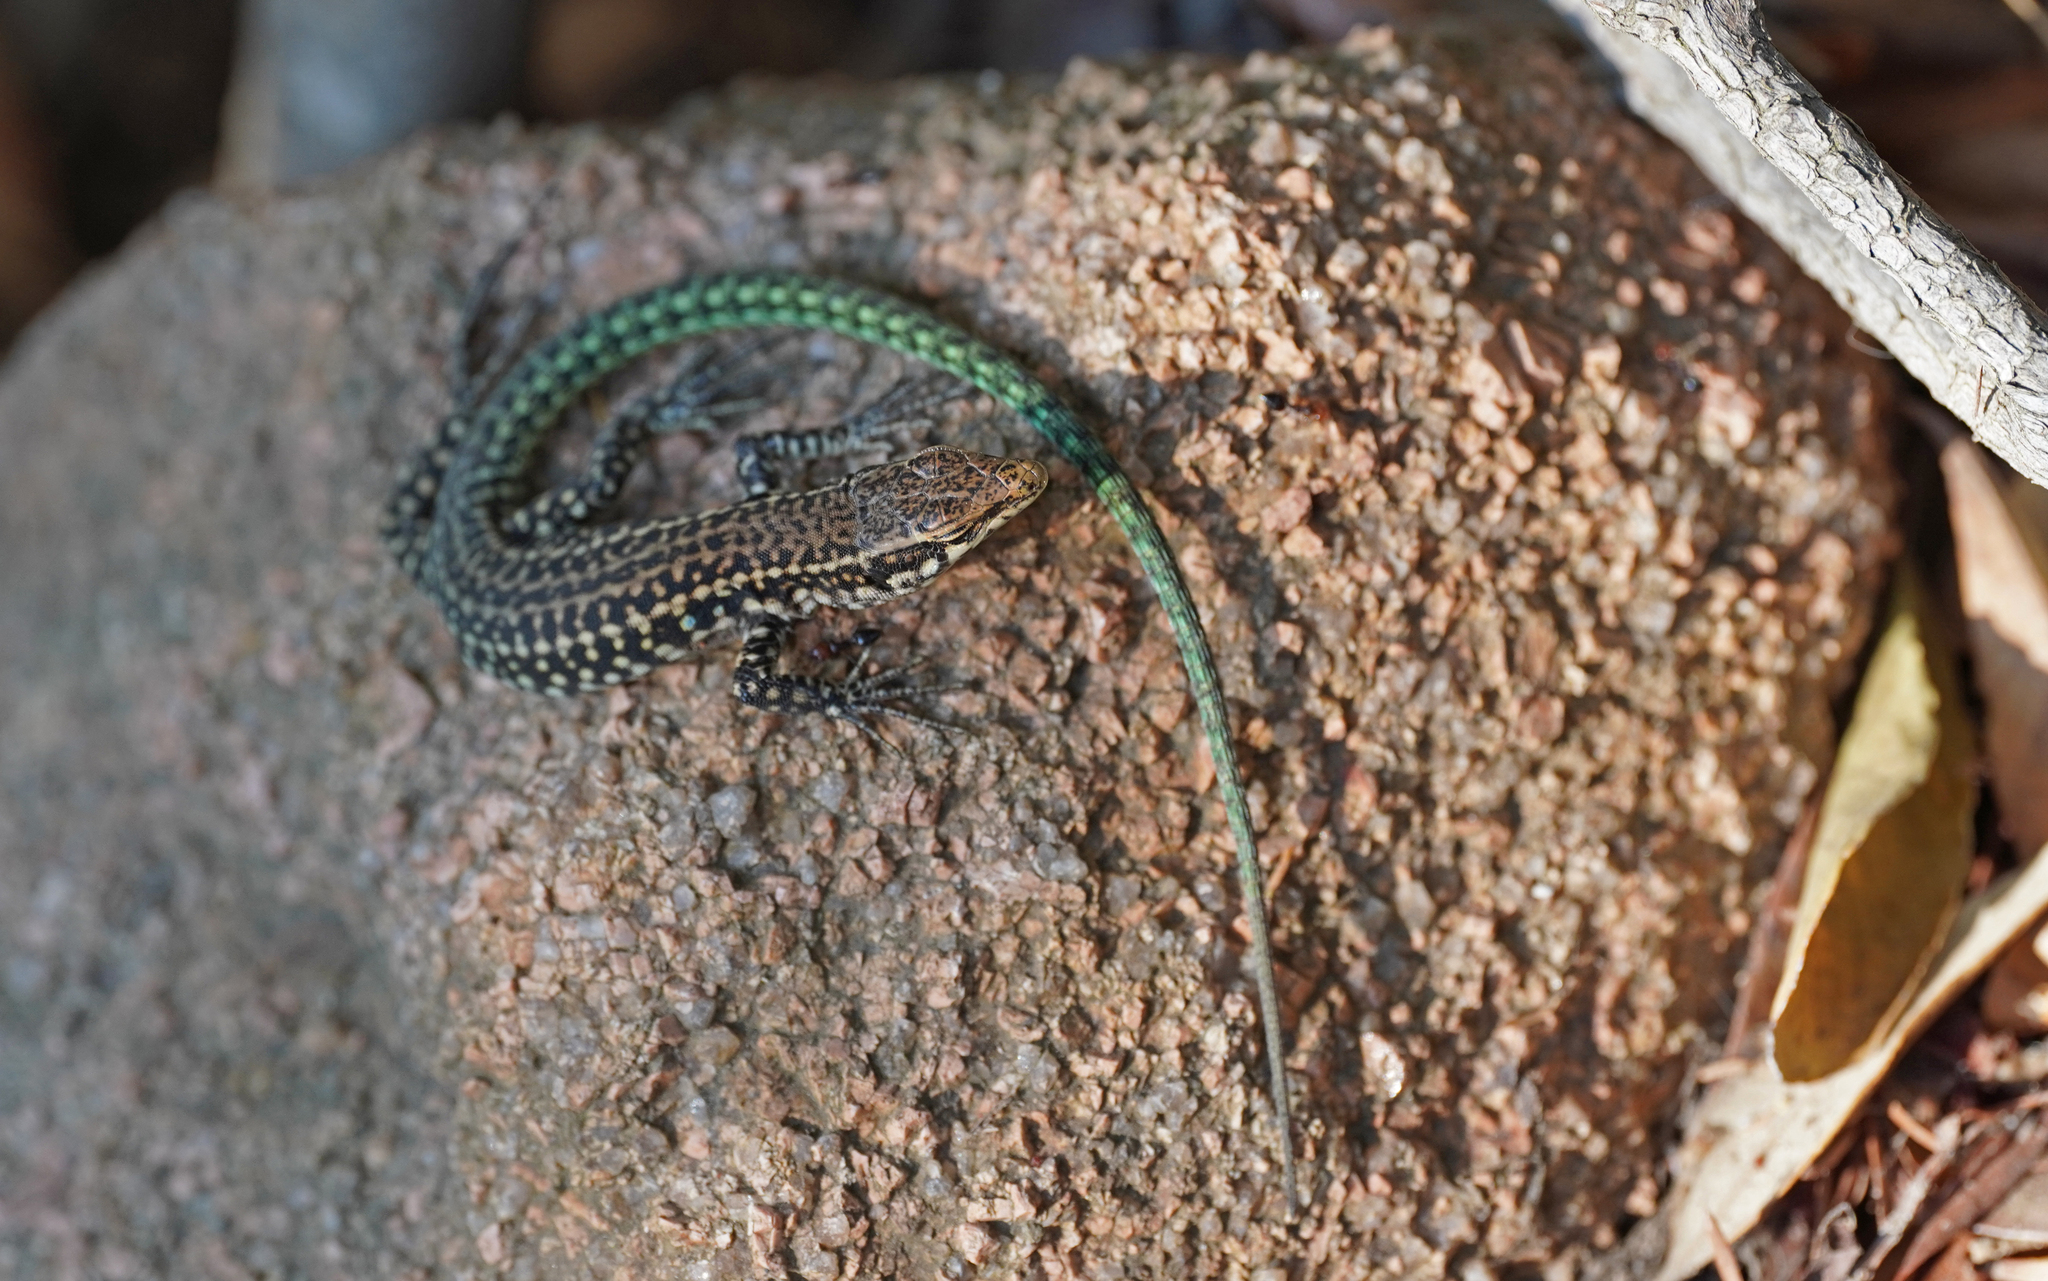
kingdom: Animalia
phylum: Chordata
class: Squamata
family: Lacertidae
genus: Podarcis
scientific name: Podarcis tiliguerta
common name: Tyrrhenian wall lizard
